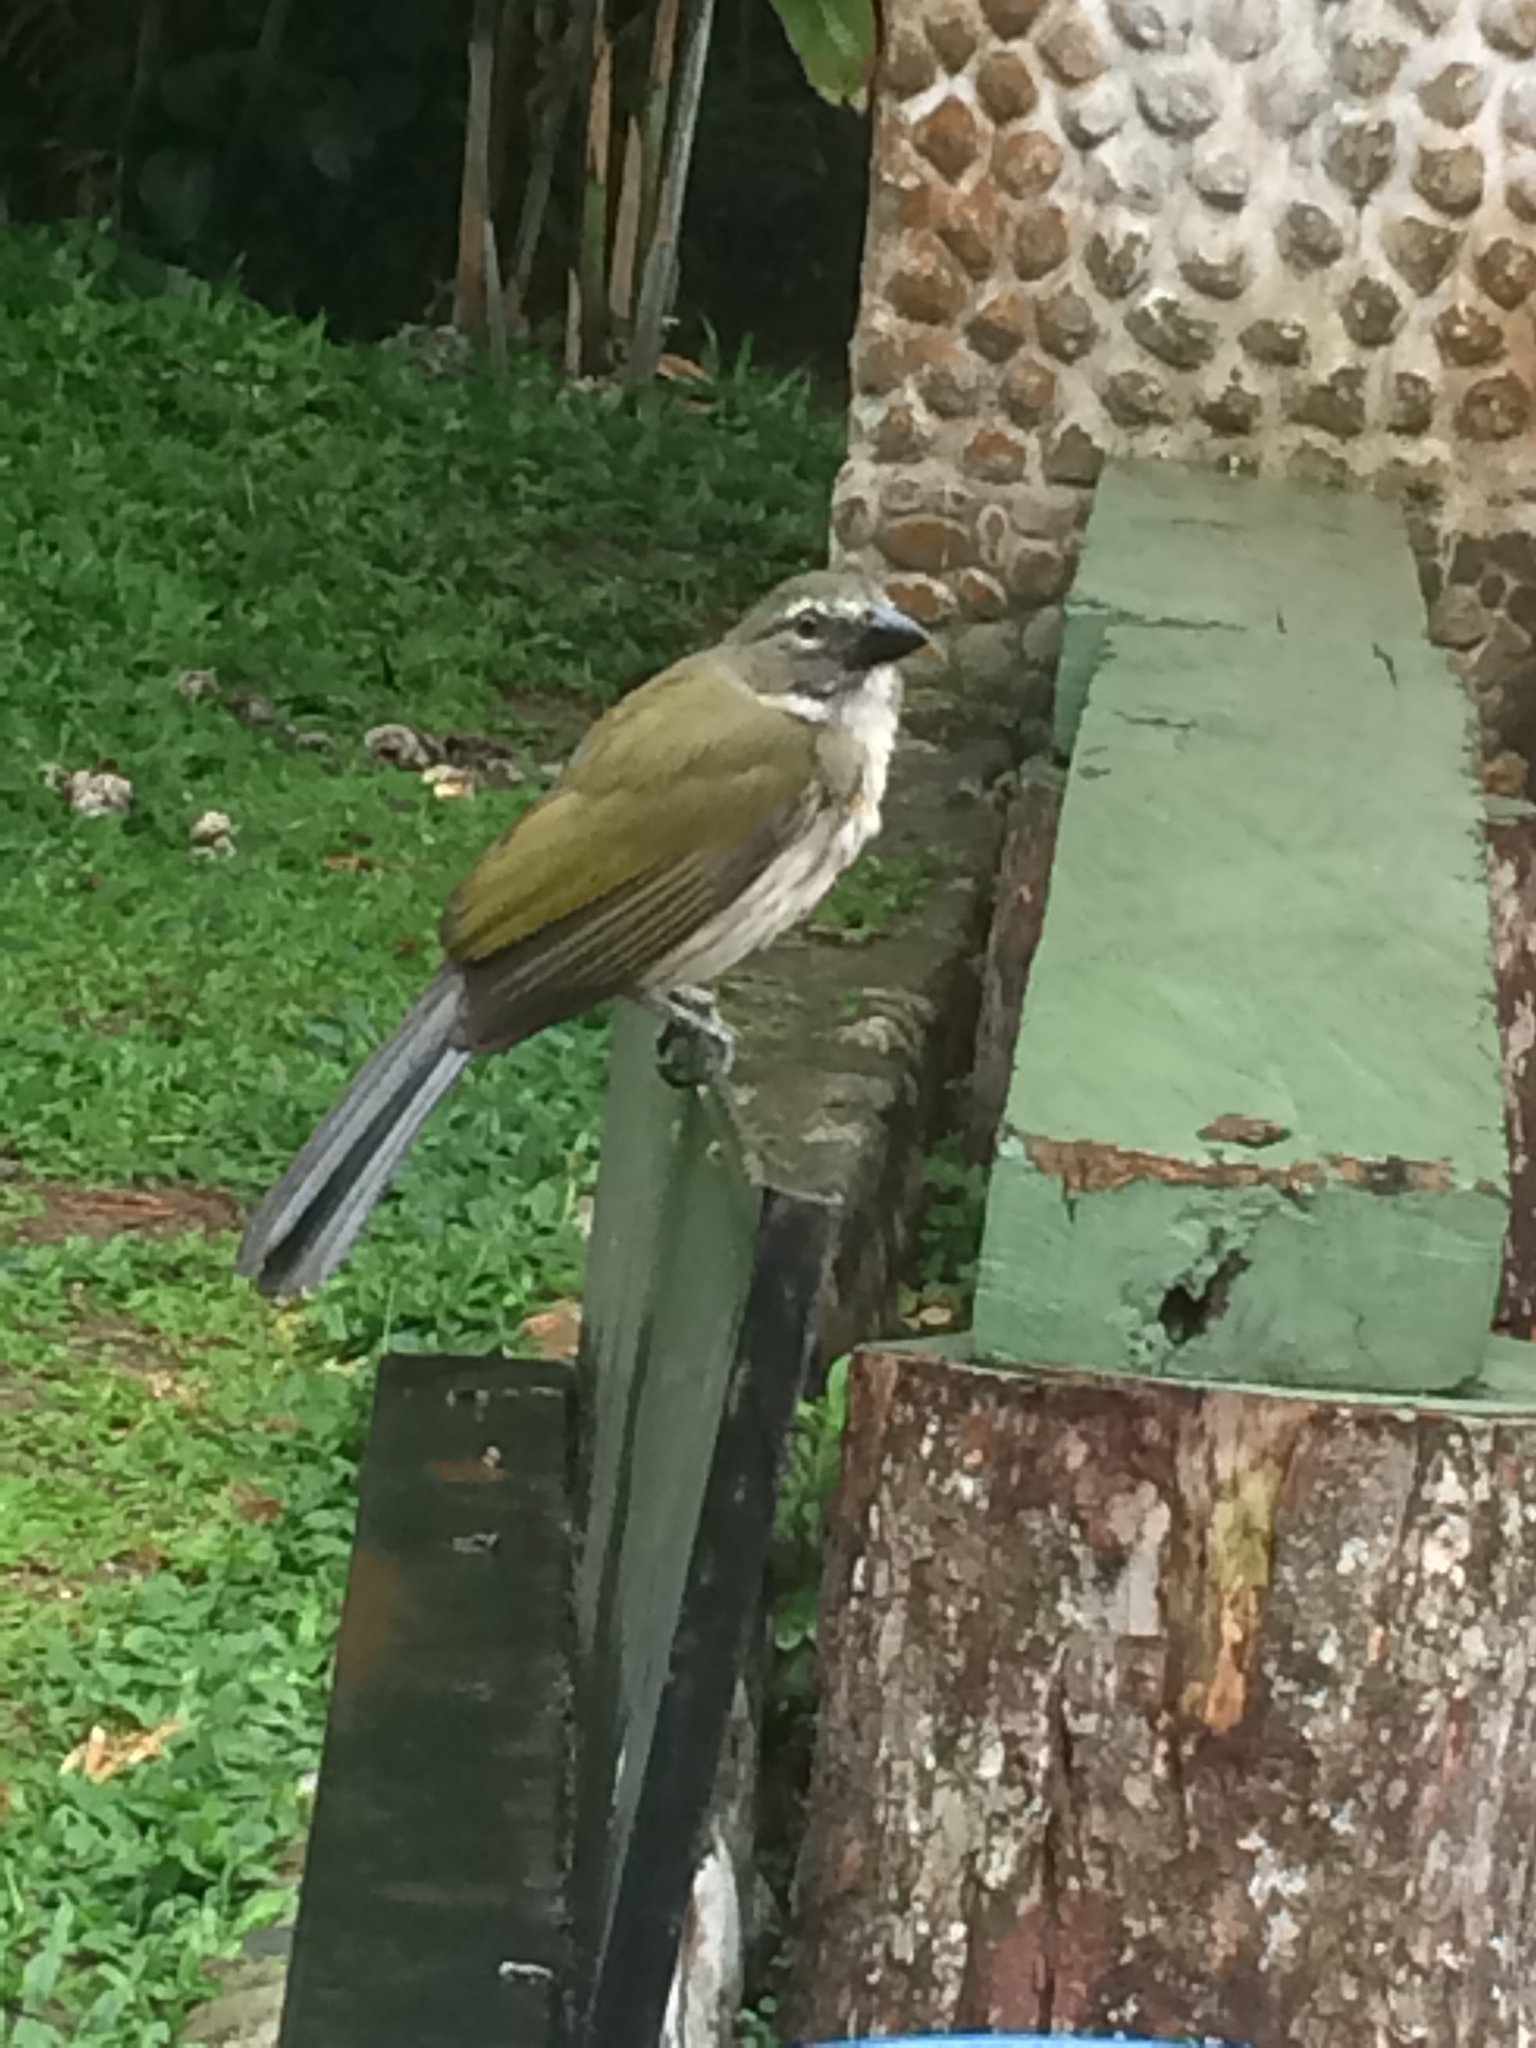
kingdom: Animalia
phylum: Chordata
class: Aves
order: Passeriformes
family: Thraupidae
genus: Saltator
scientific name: Saltator striatipectus
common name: Streaked saltator
